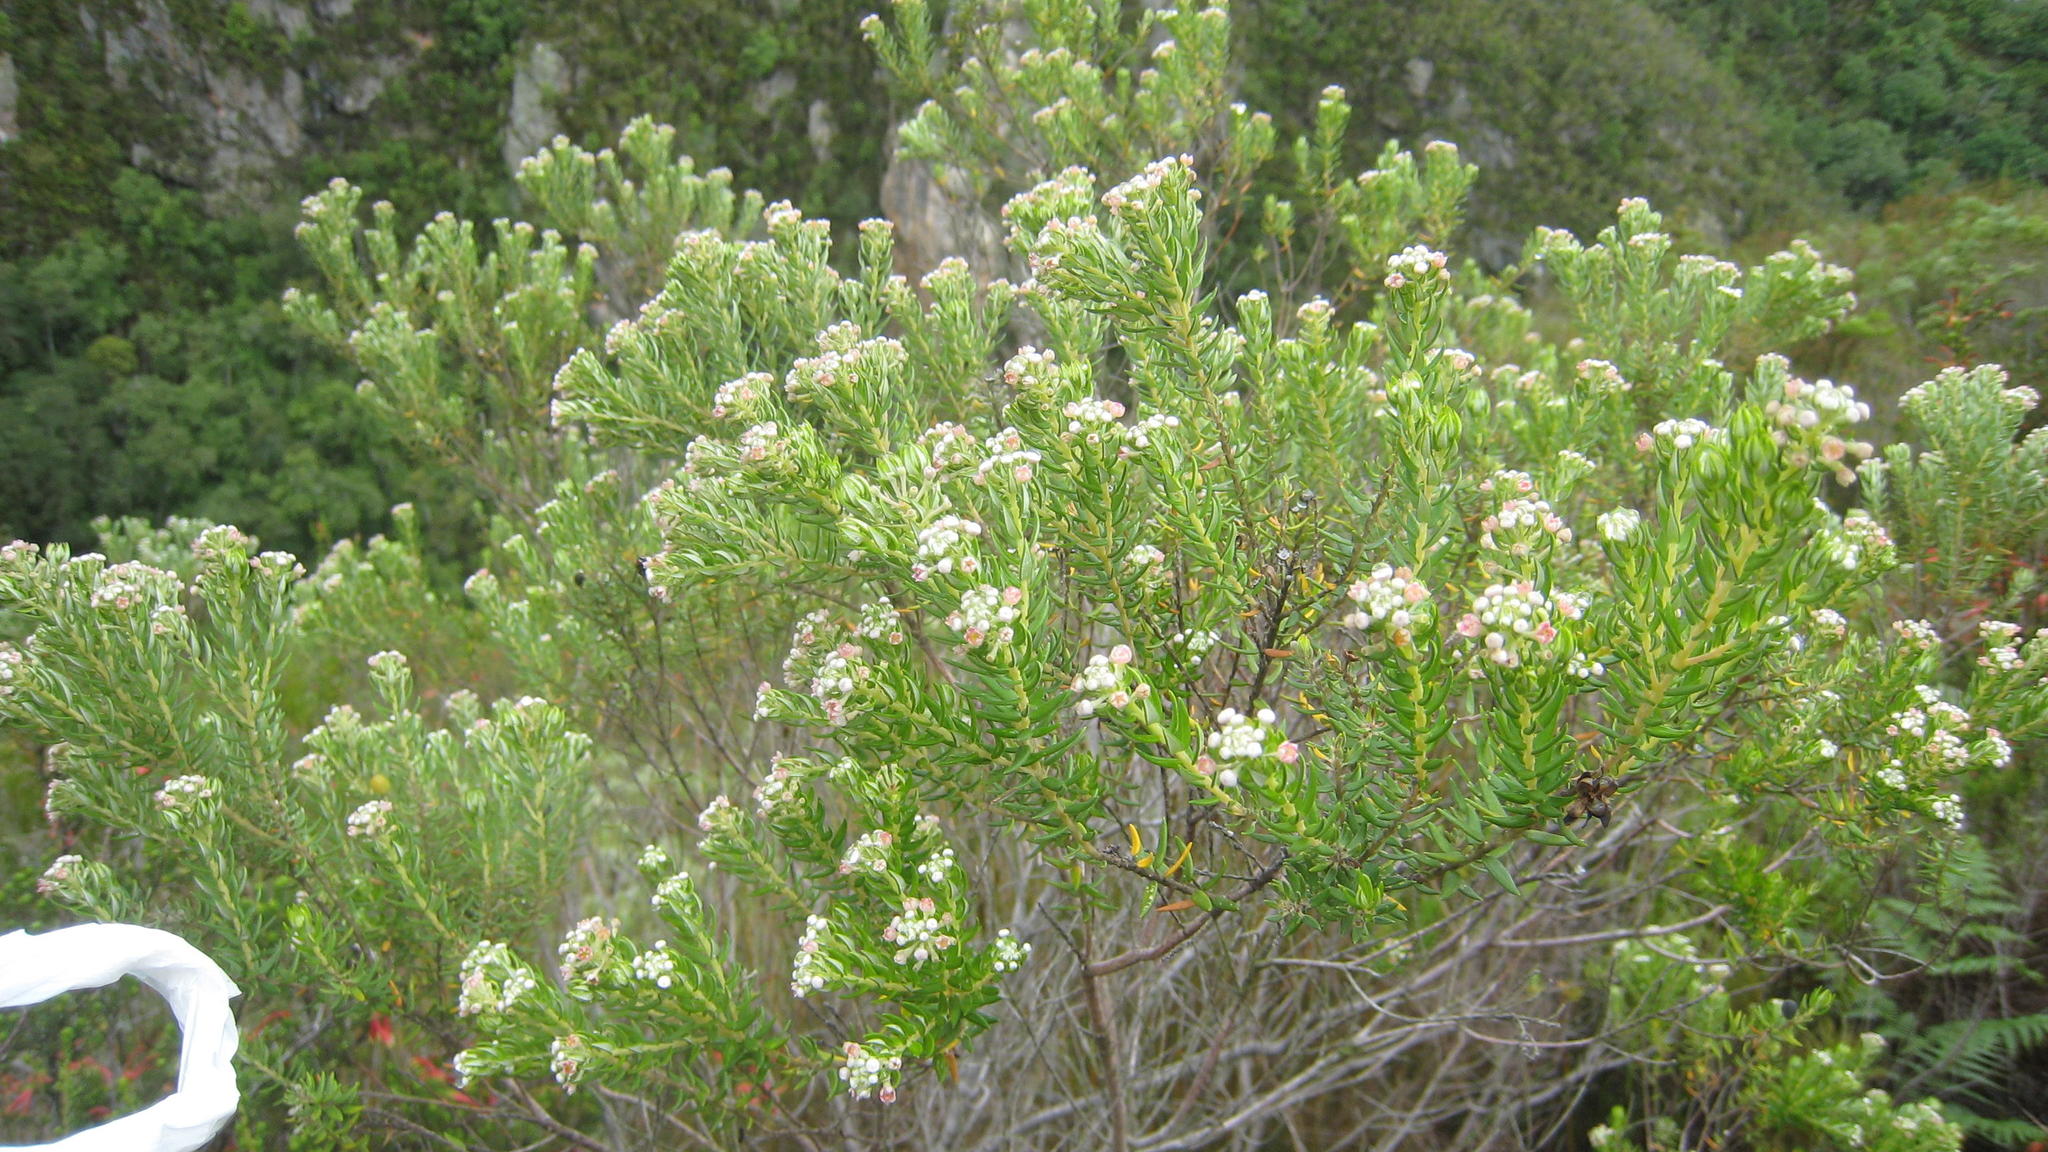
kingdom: Plantae
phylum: Tracheophyta
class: Magnoliopsida
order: Rosales
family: Rhamnaceae
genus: Phylica
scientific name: Phylica pinea
